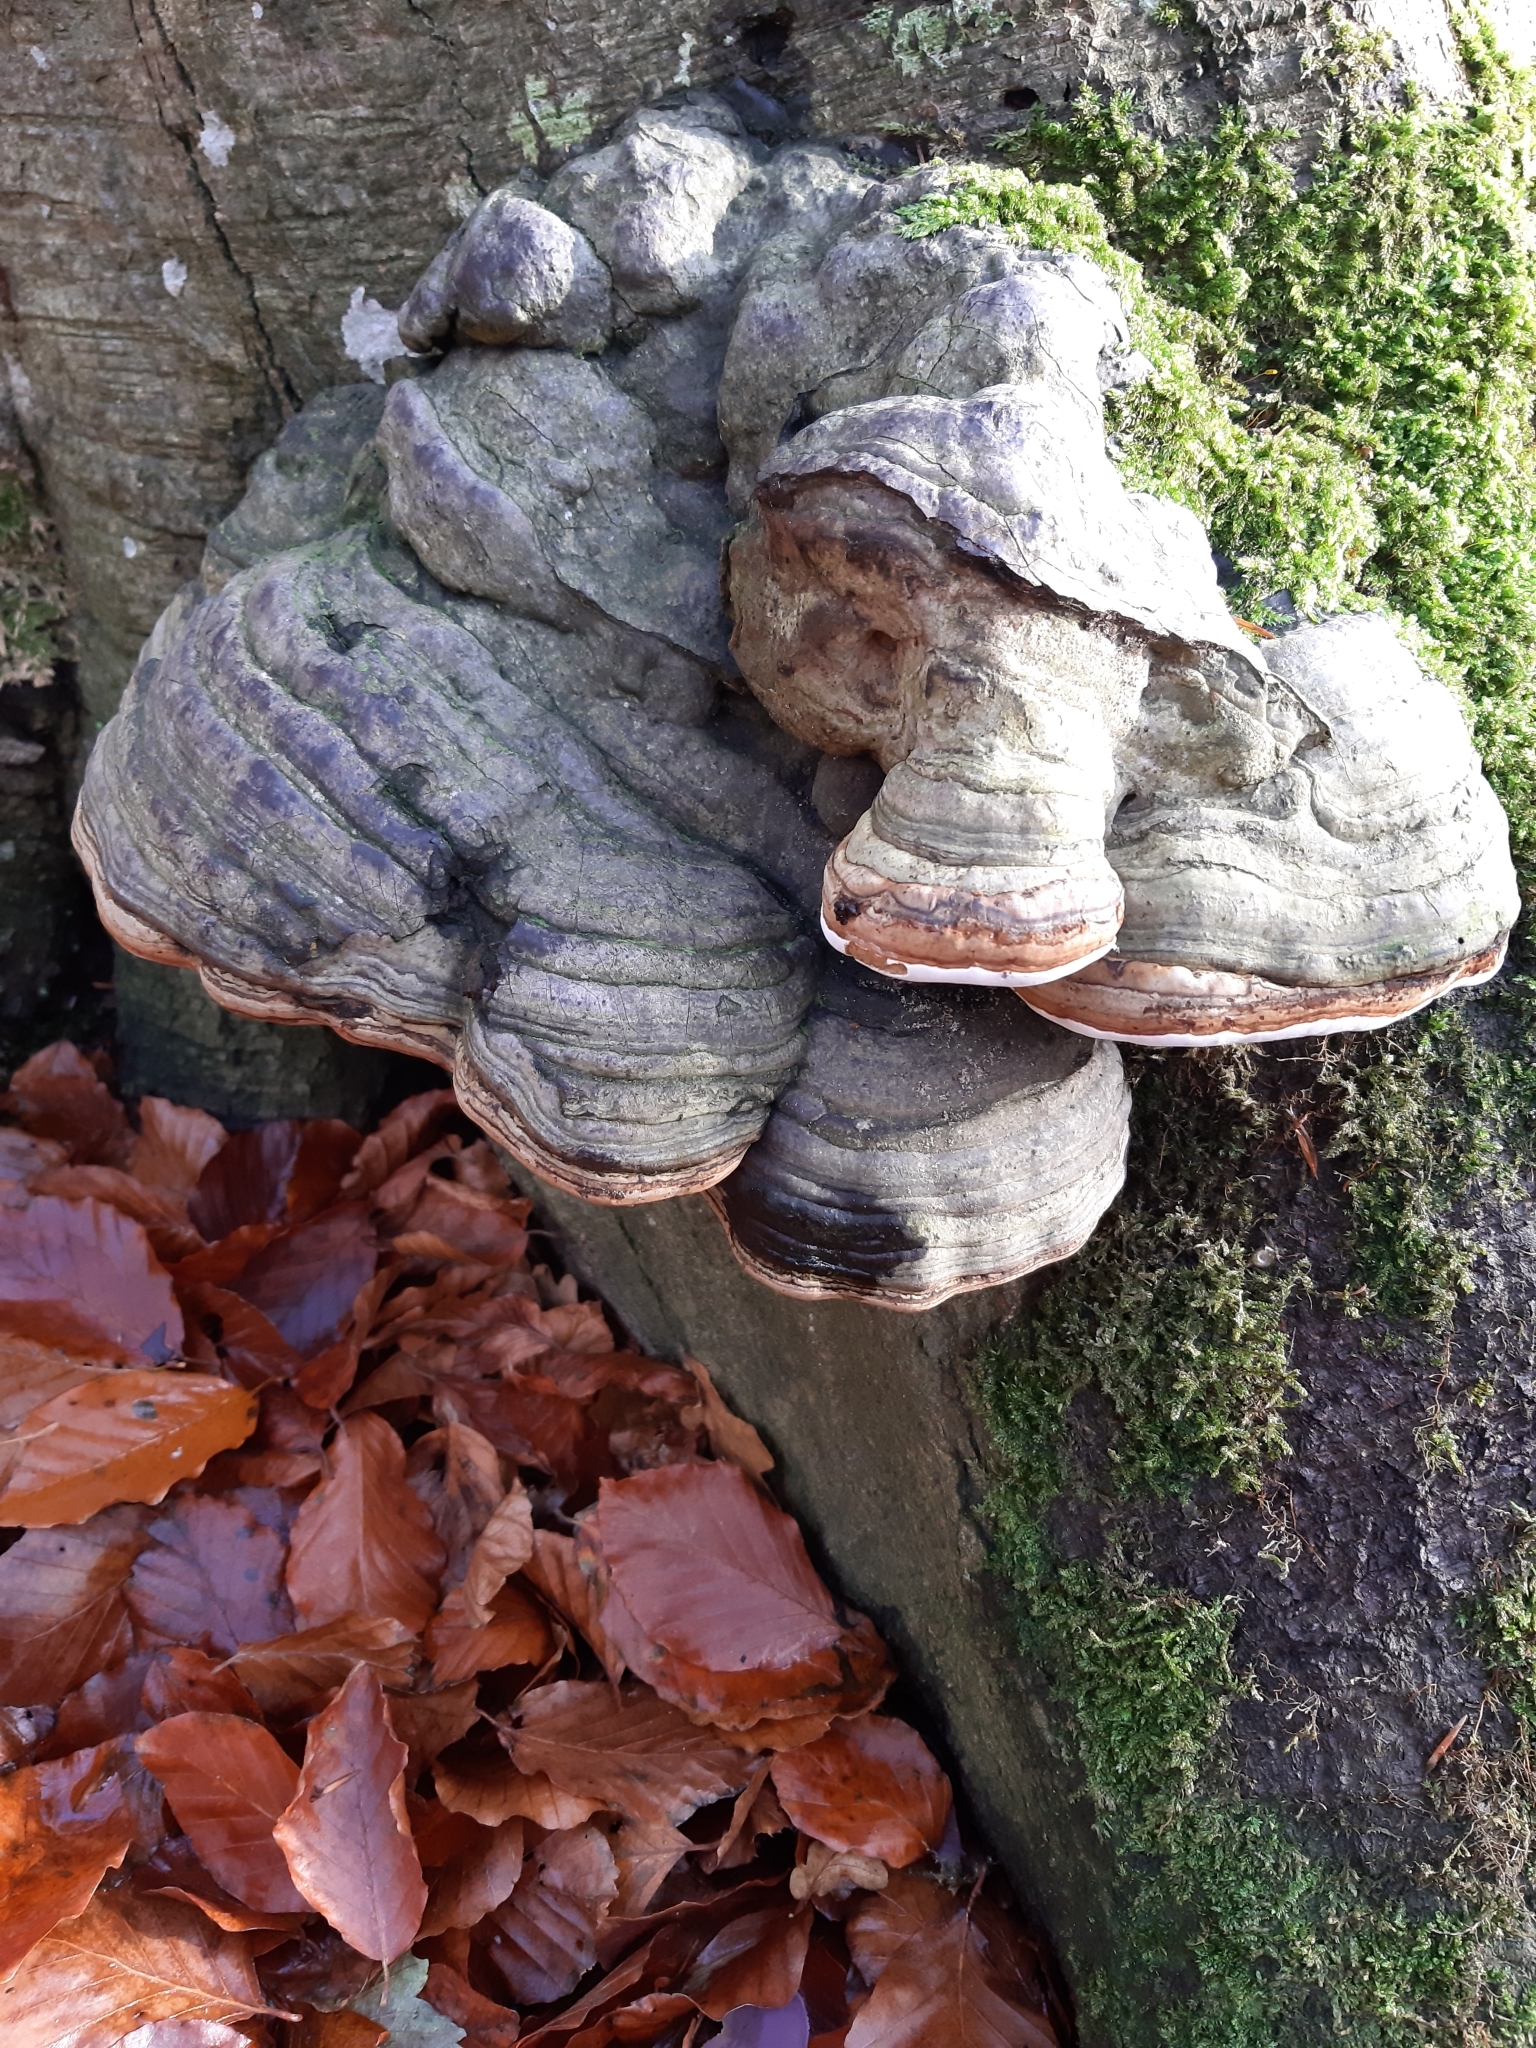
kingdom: Fungi
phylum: Basidiomycota
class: Agaricomycetes
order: Polyporales
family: Polyporaceae
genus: Fomes
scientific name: Fomes fomentarius
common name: Hoof fungus
